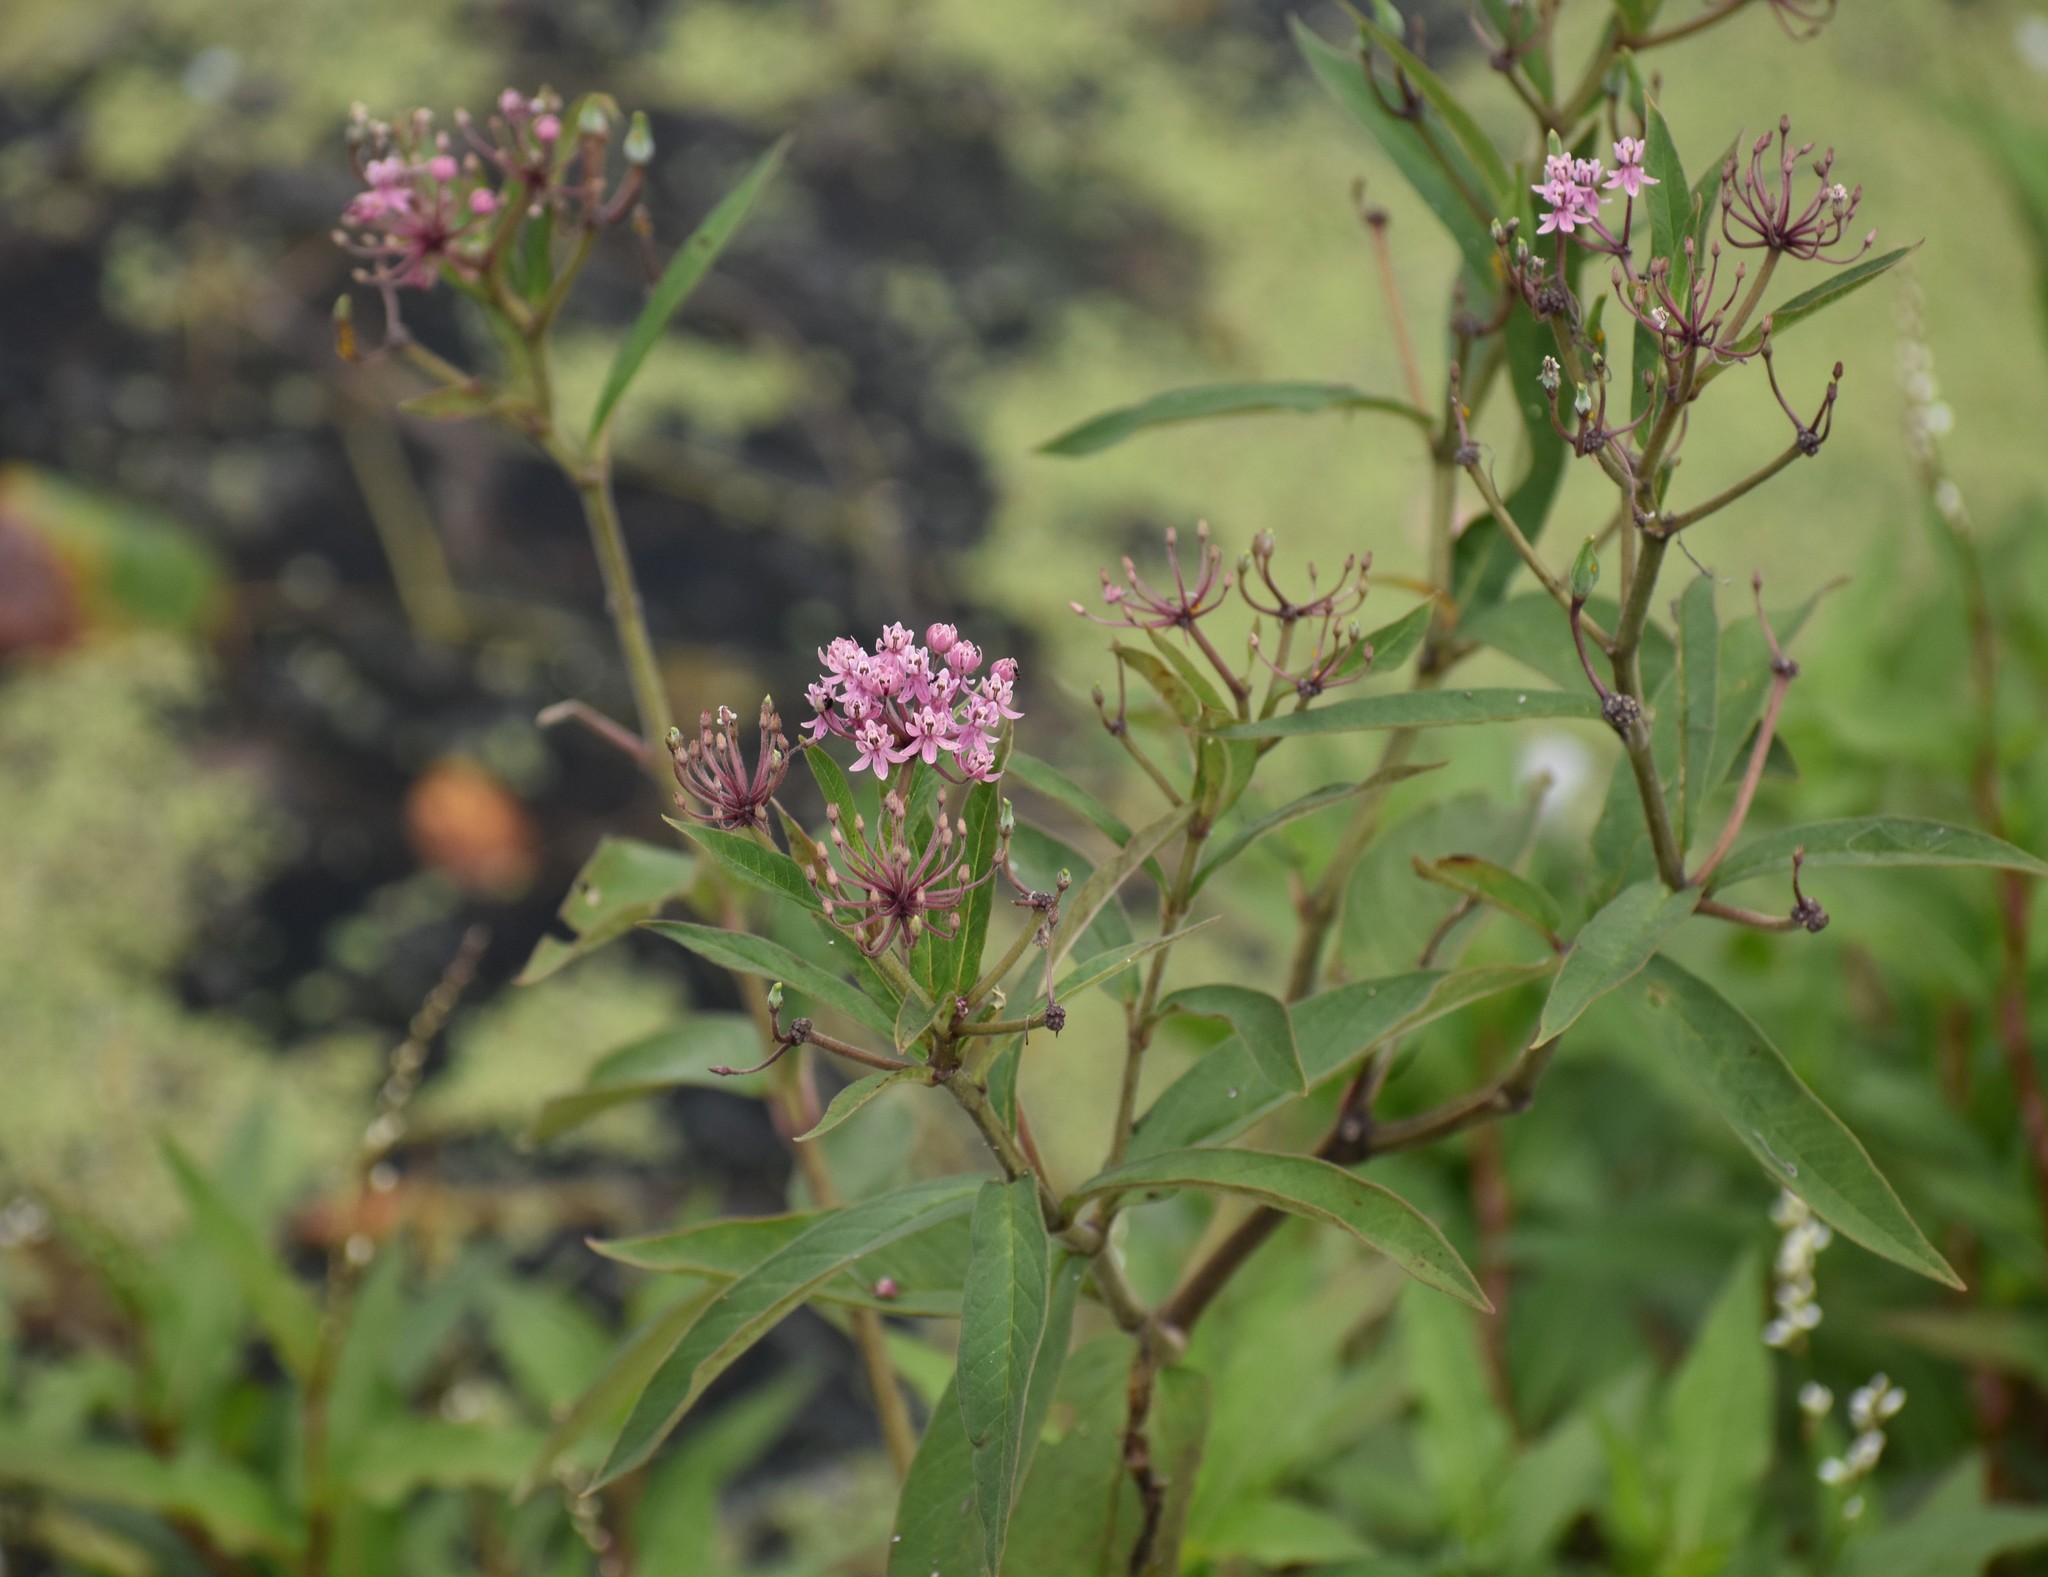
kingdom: Plantae
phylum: Tracheophyta
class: Magnoliopsida
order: Gentianales
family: Apocynaceae
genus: Asclepias
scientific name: Asclepias incarnata
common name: Swamp milkweed
